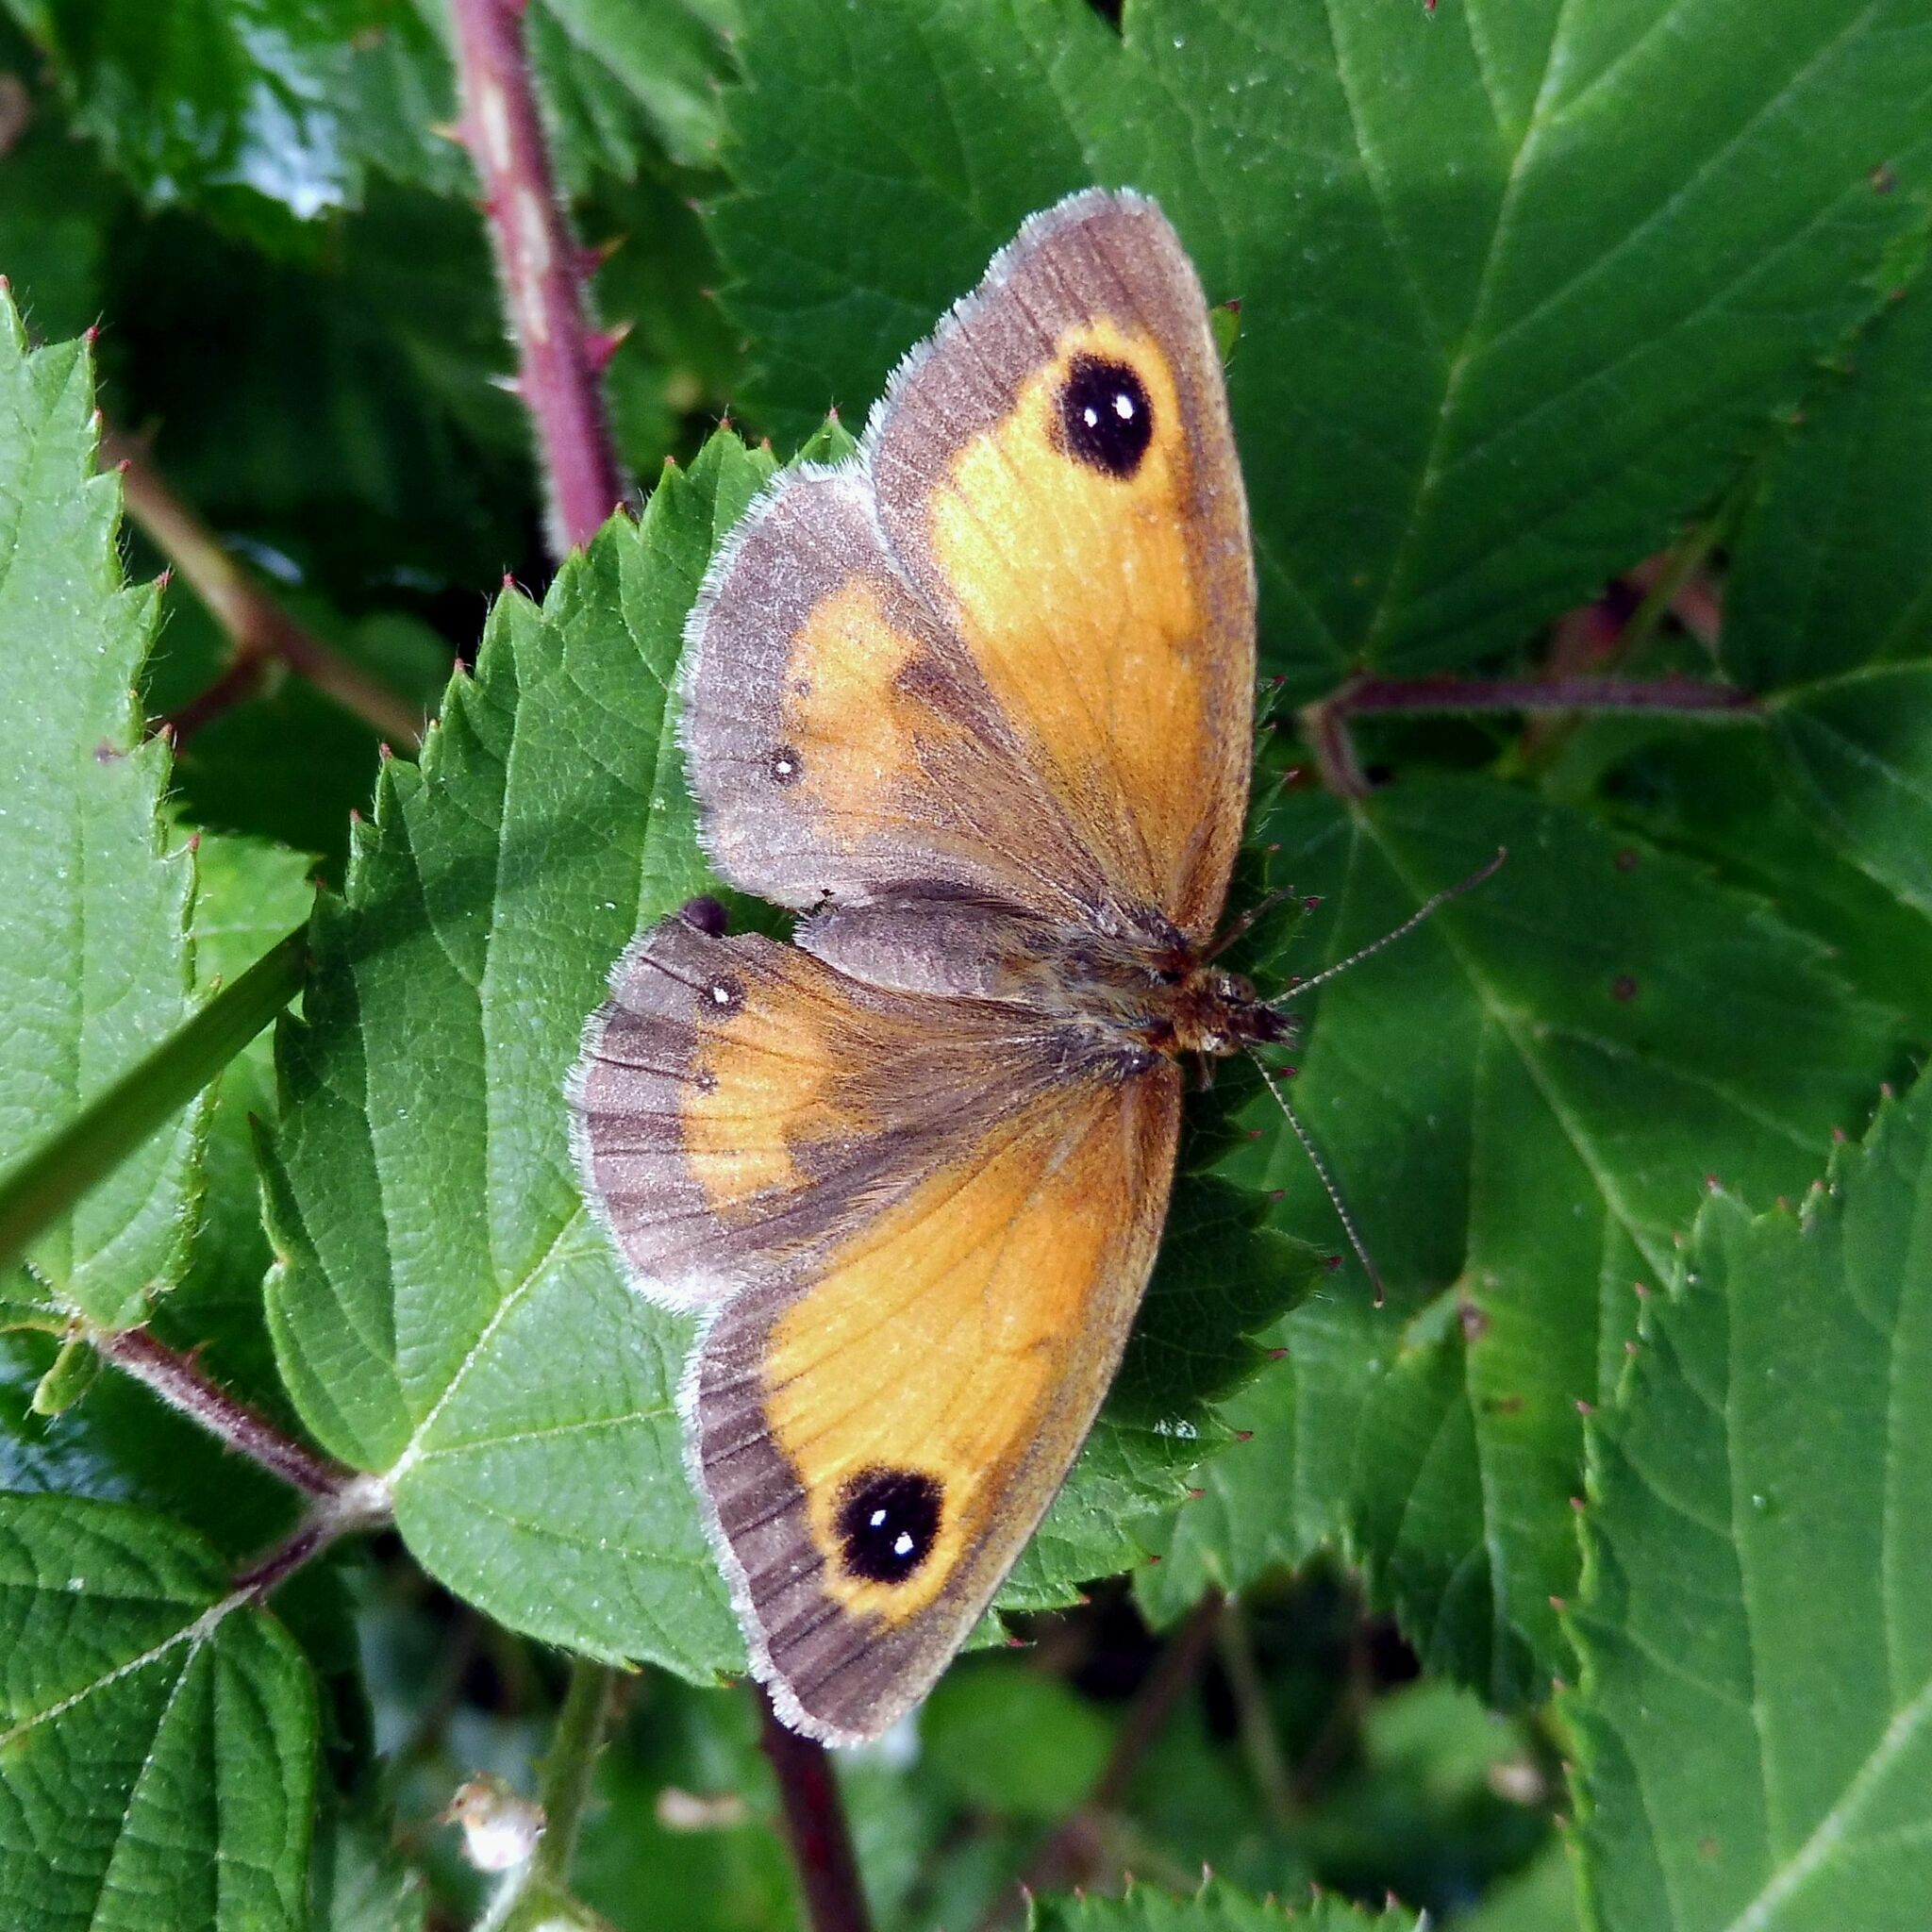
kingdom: Animalia
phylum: Arthropoda
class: Insecta
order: Lepidoptera
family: Nymphalidae
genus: Pyronia
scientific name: Pyronia tithonus
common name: Gatekeeper
